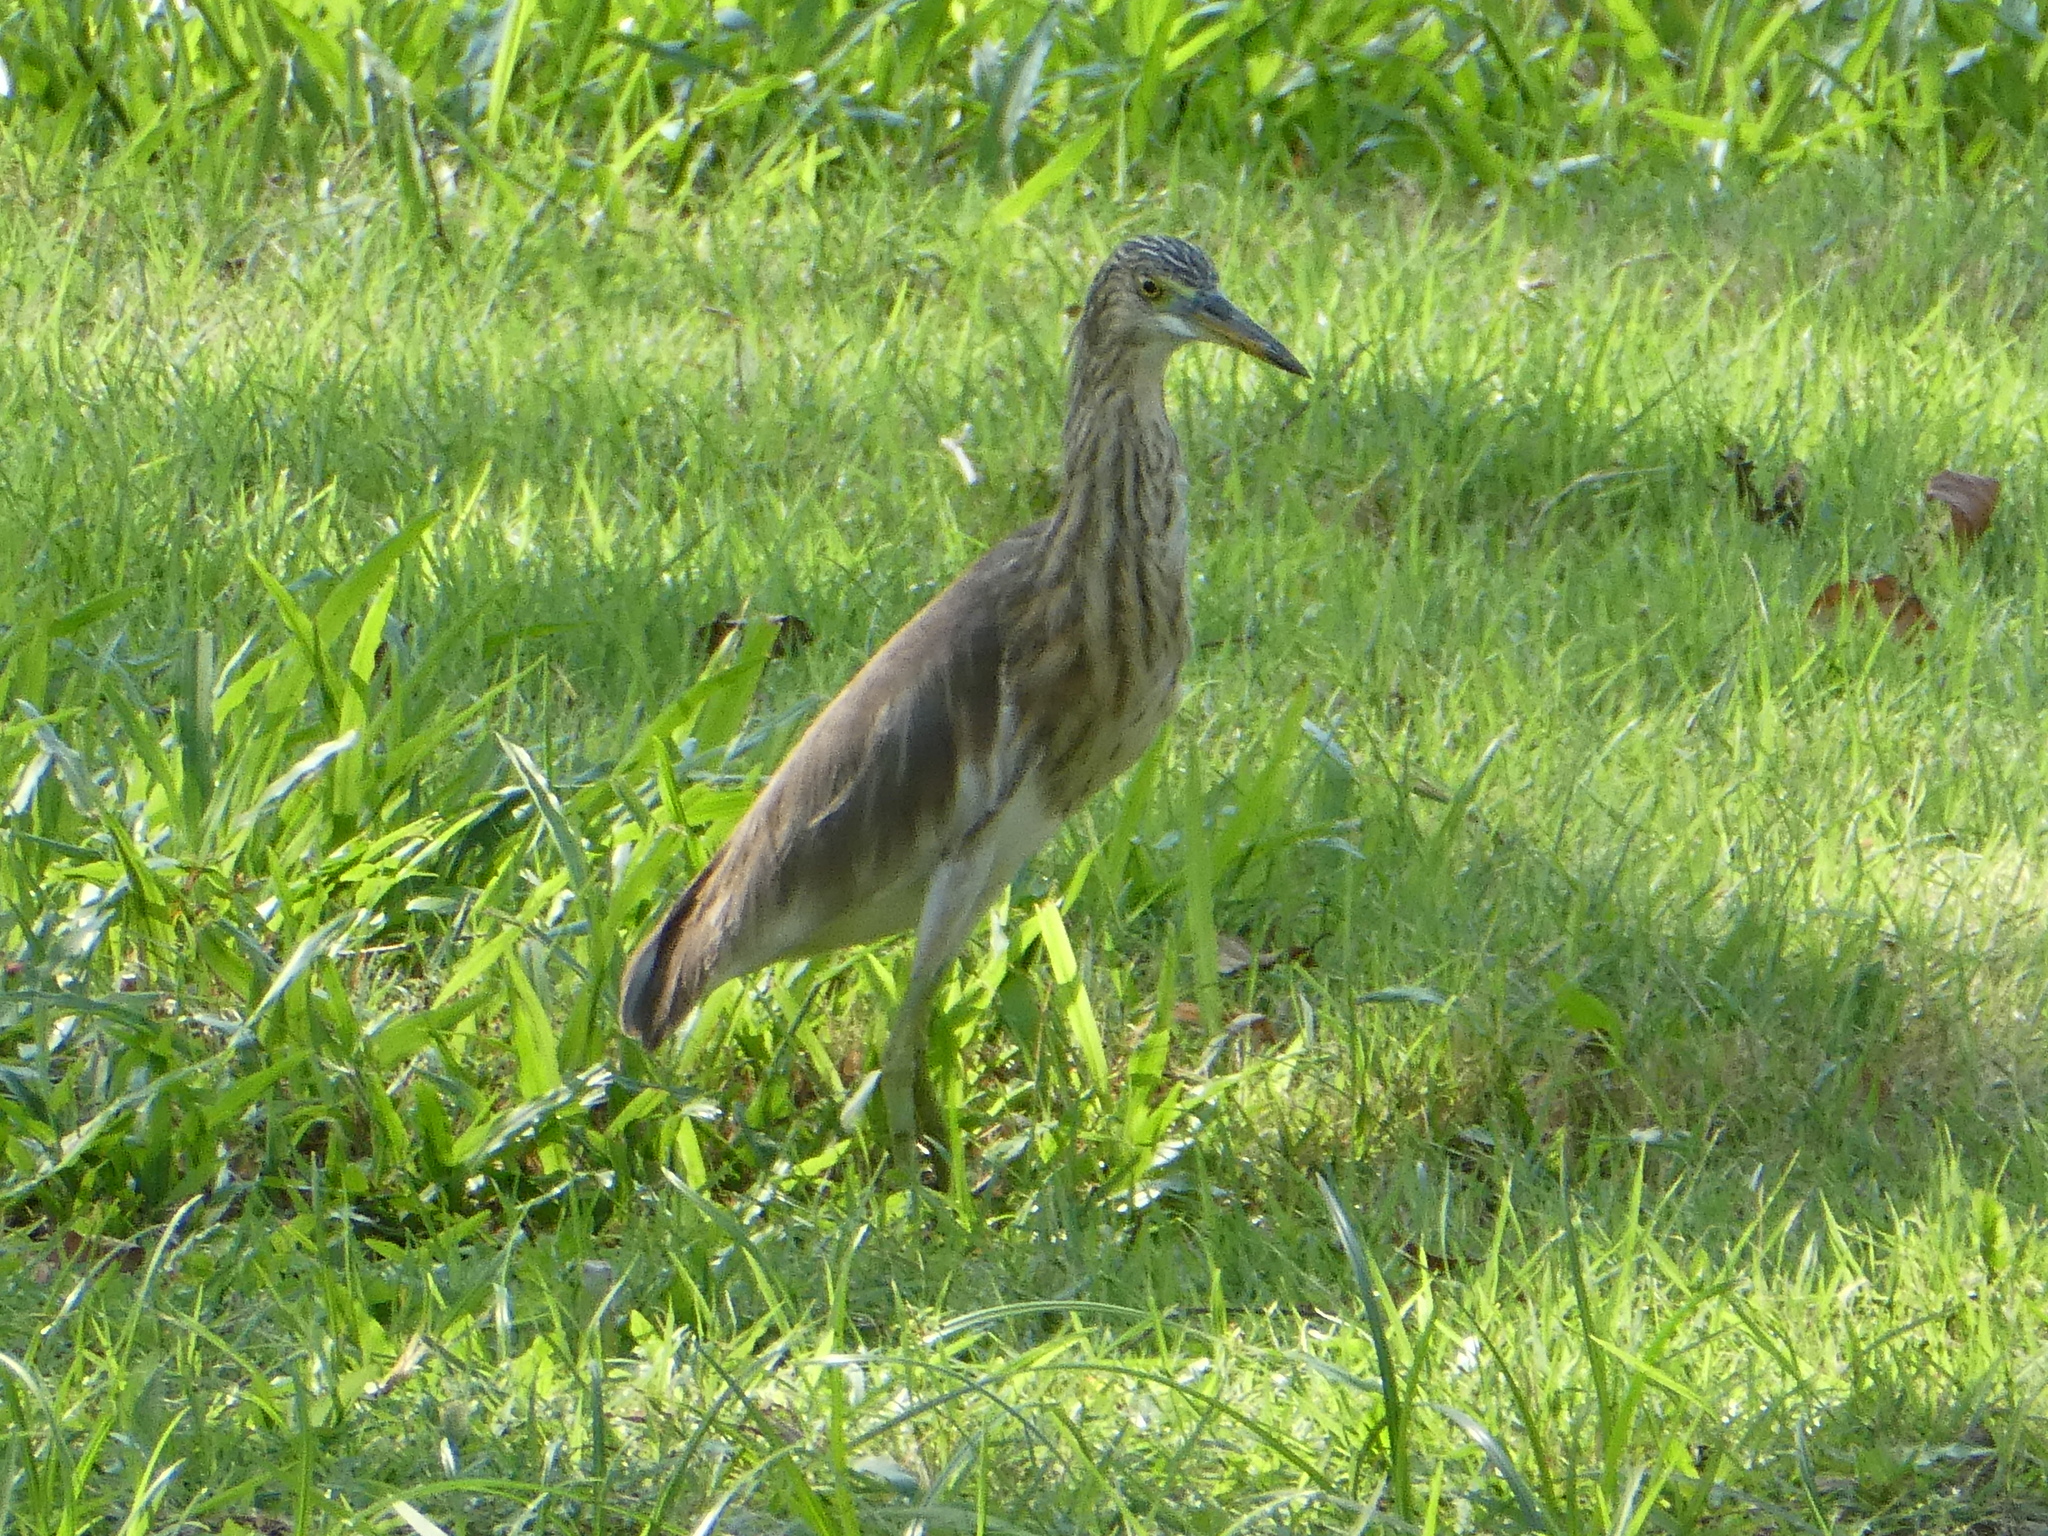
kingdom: Animalia
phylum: Chordata
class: Aves
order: Pelecaniformes
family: Ardeidae
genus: Ardeola
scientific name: Ardeola
